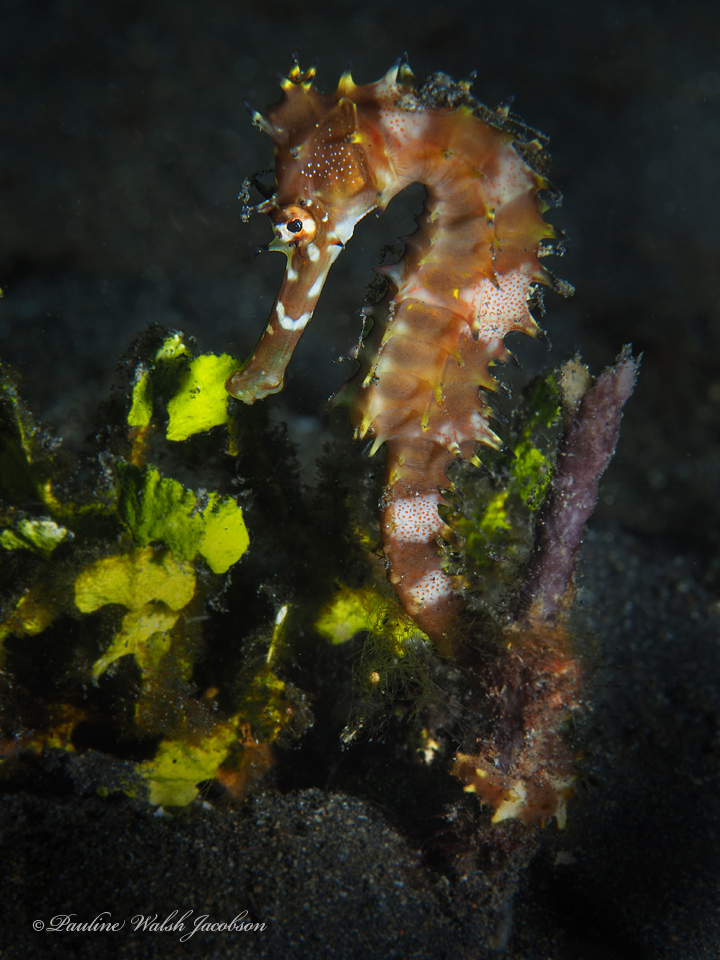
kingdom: Animalia
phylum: Chordata
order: Syngnathiformes
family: Syngnathidae
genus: Hippocampus
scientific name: Hippocampus histrix
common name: Longspine seahorse
